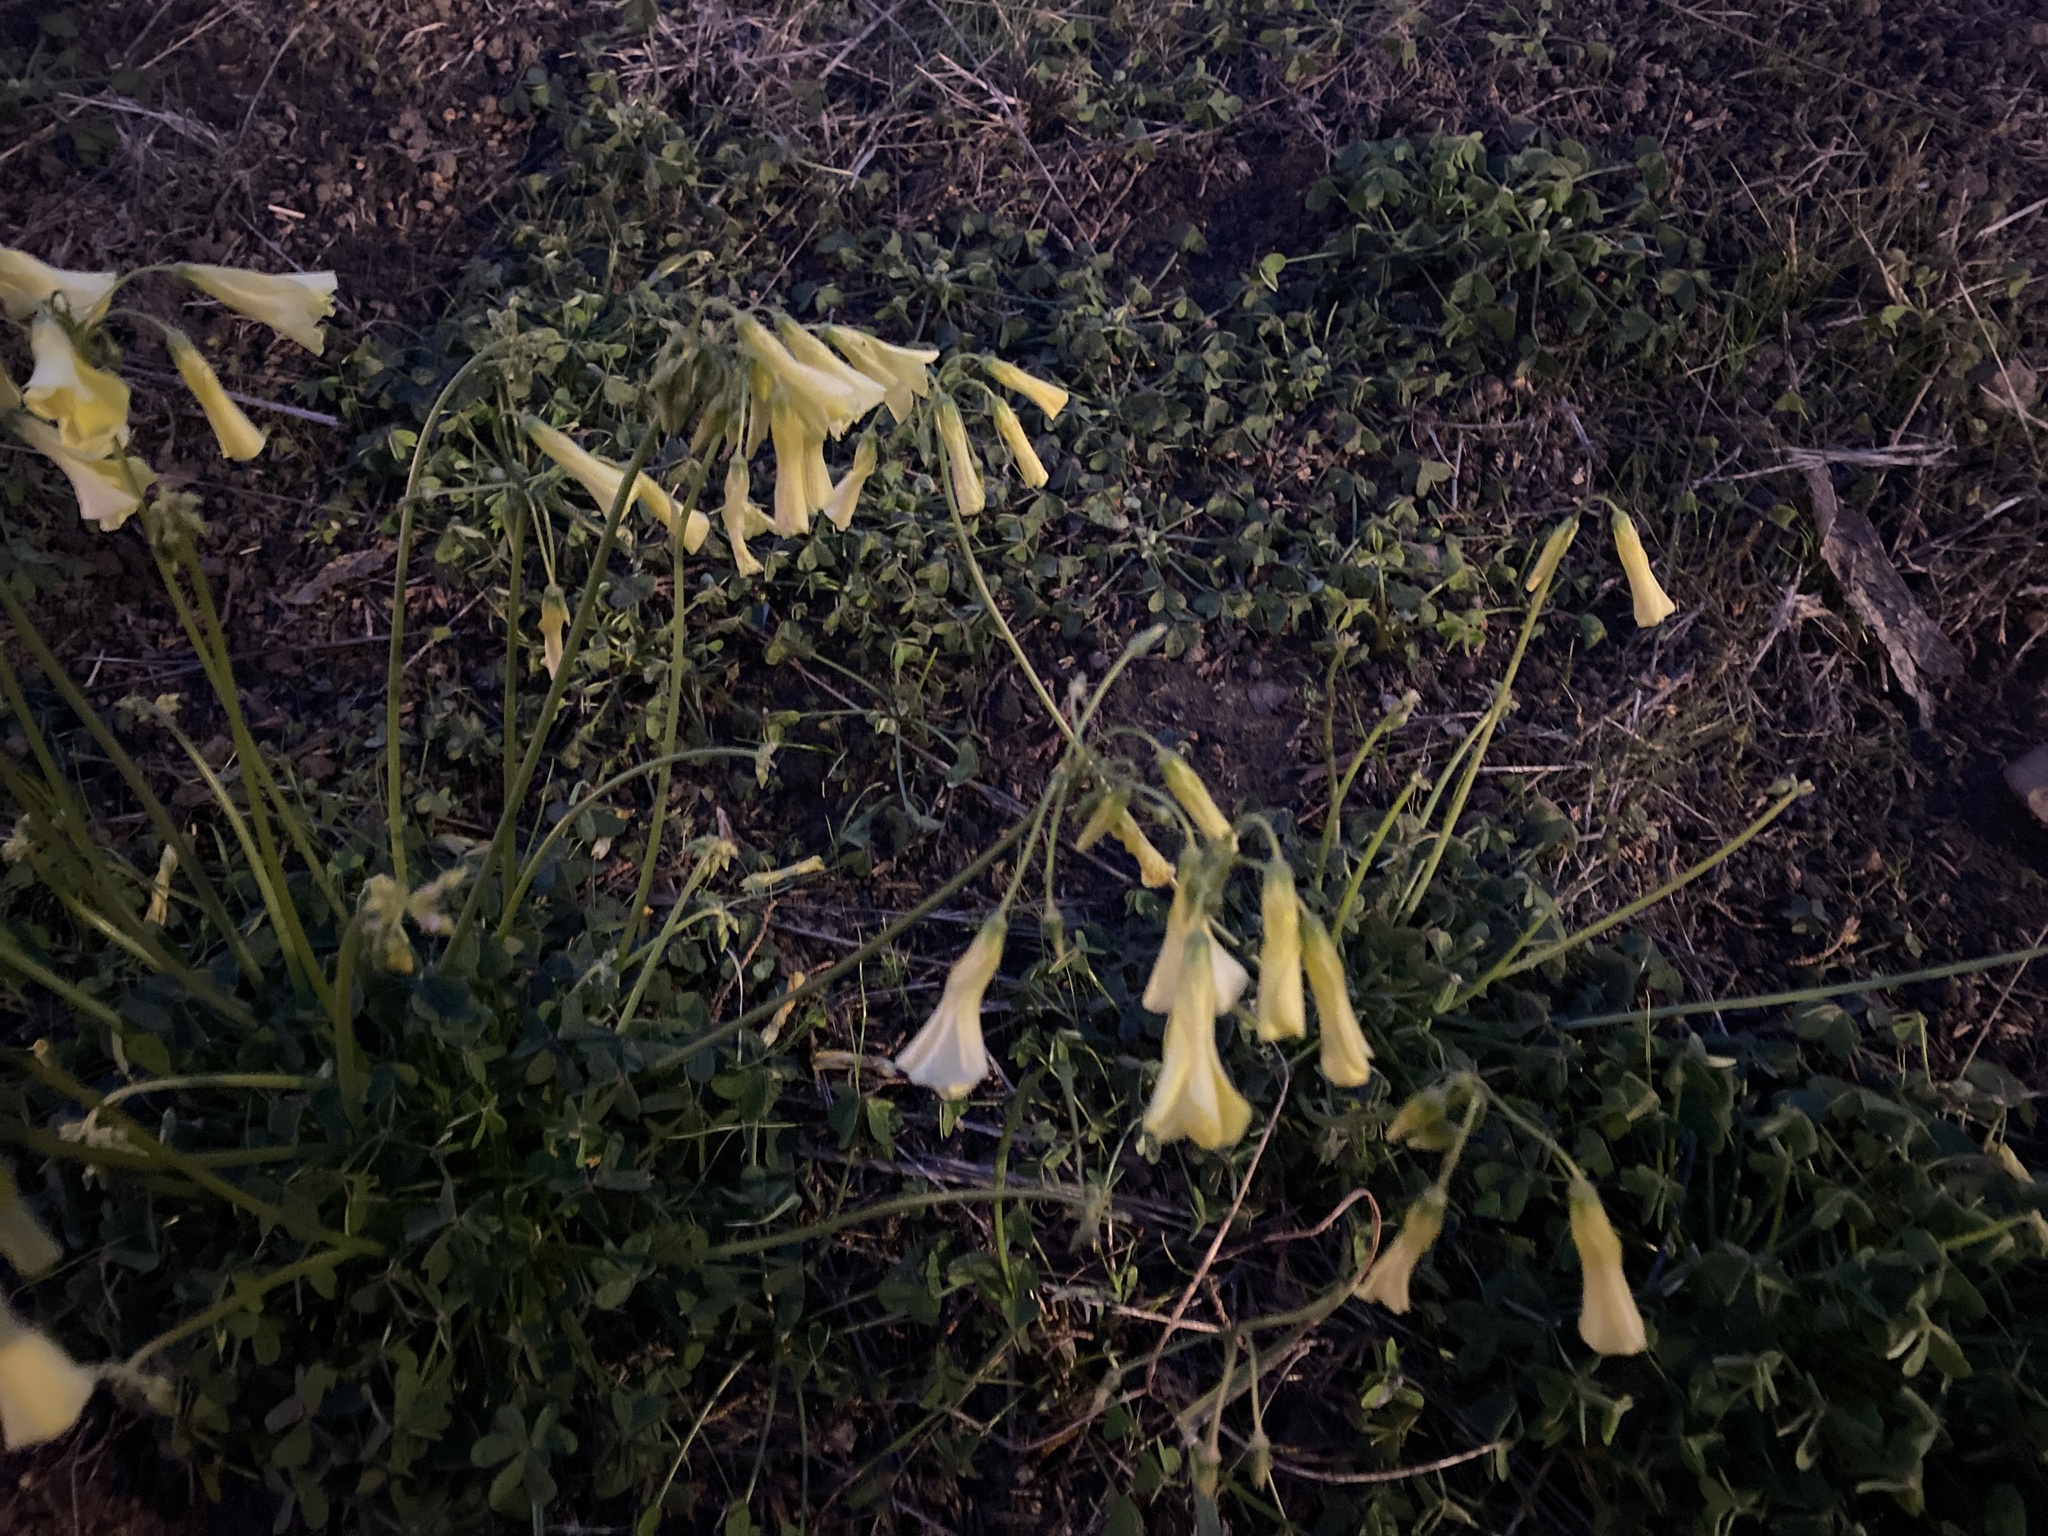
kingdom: Plantae
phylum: Tracheophyta
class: Magnoliopsida
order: Oxalidales
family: Oxalidaceae
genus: Oxalis
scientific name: Oxalis pes-caprae
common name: Bermuda-buttercup
